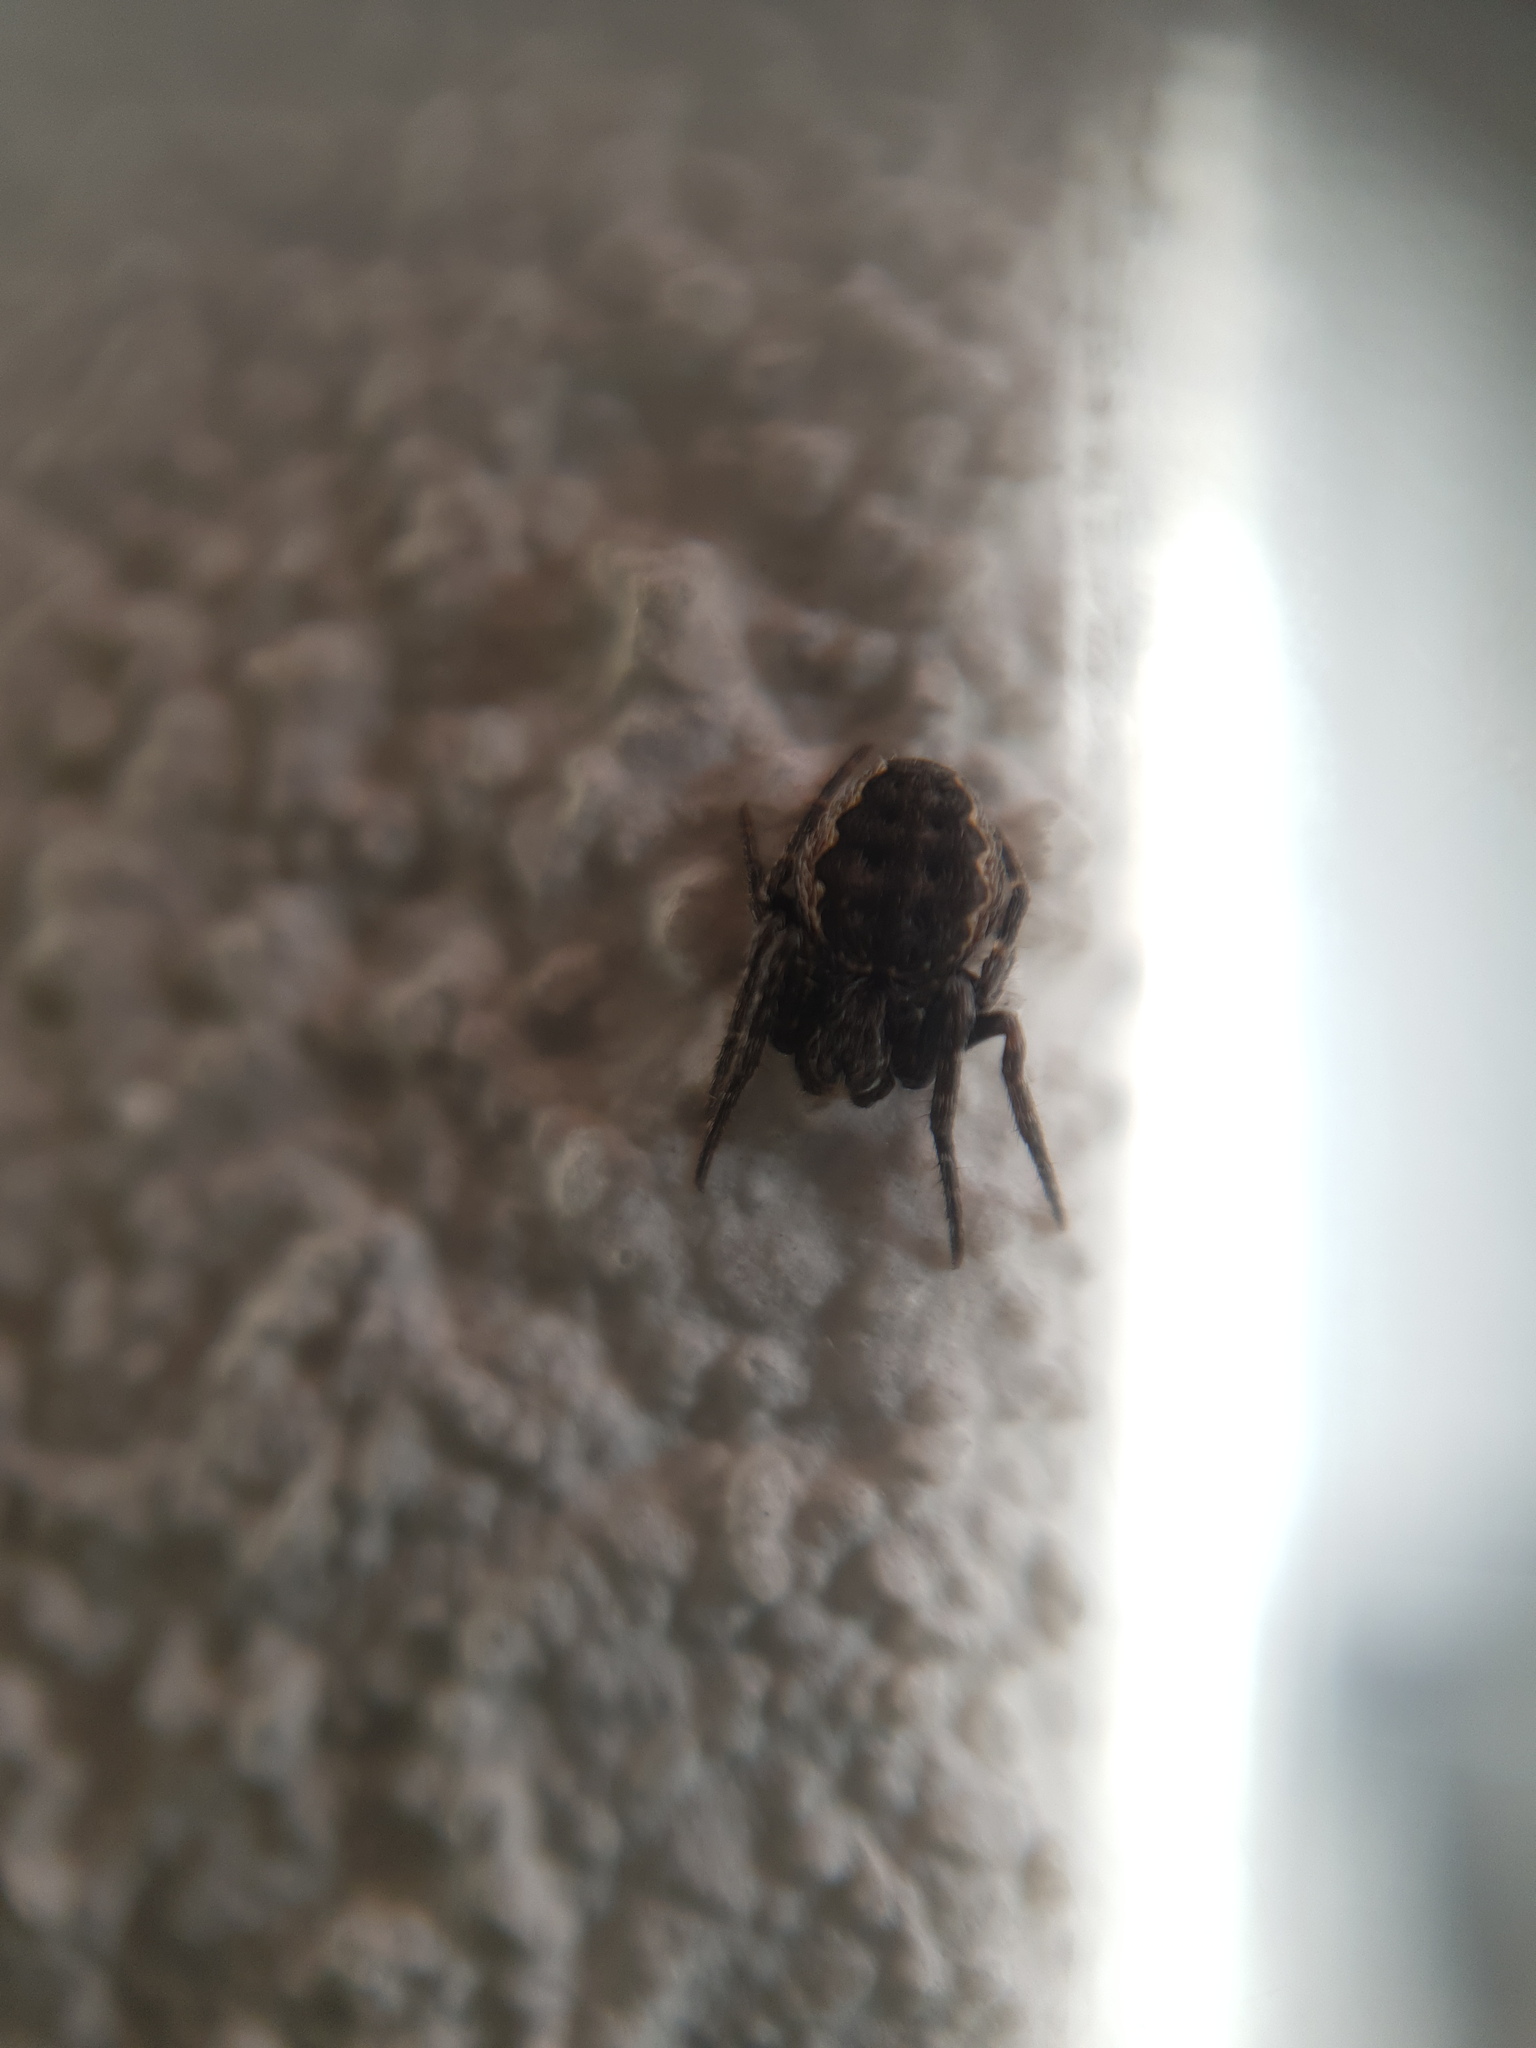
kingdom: Animalia
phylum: Arthropoda
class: Arachnida
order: Araneae
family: Araneidae
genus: Nuctenea
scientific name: Nuctenea umbratica
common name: Toad spider
